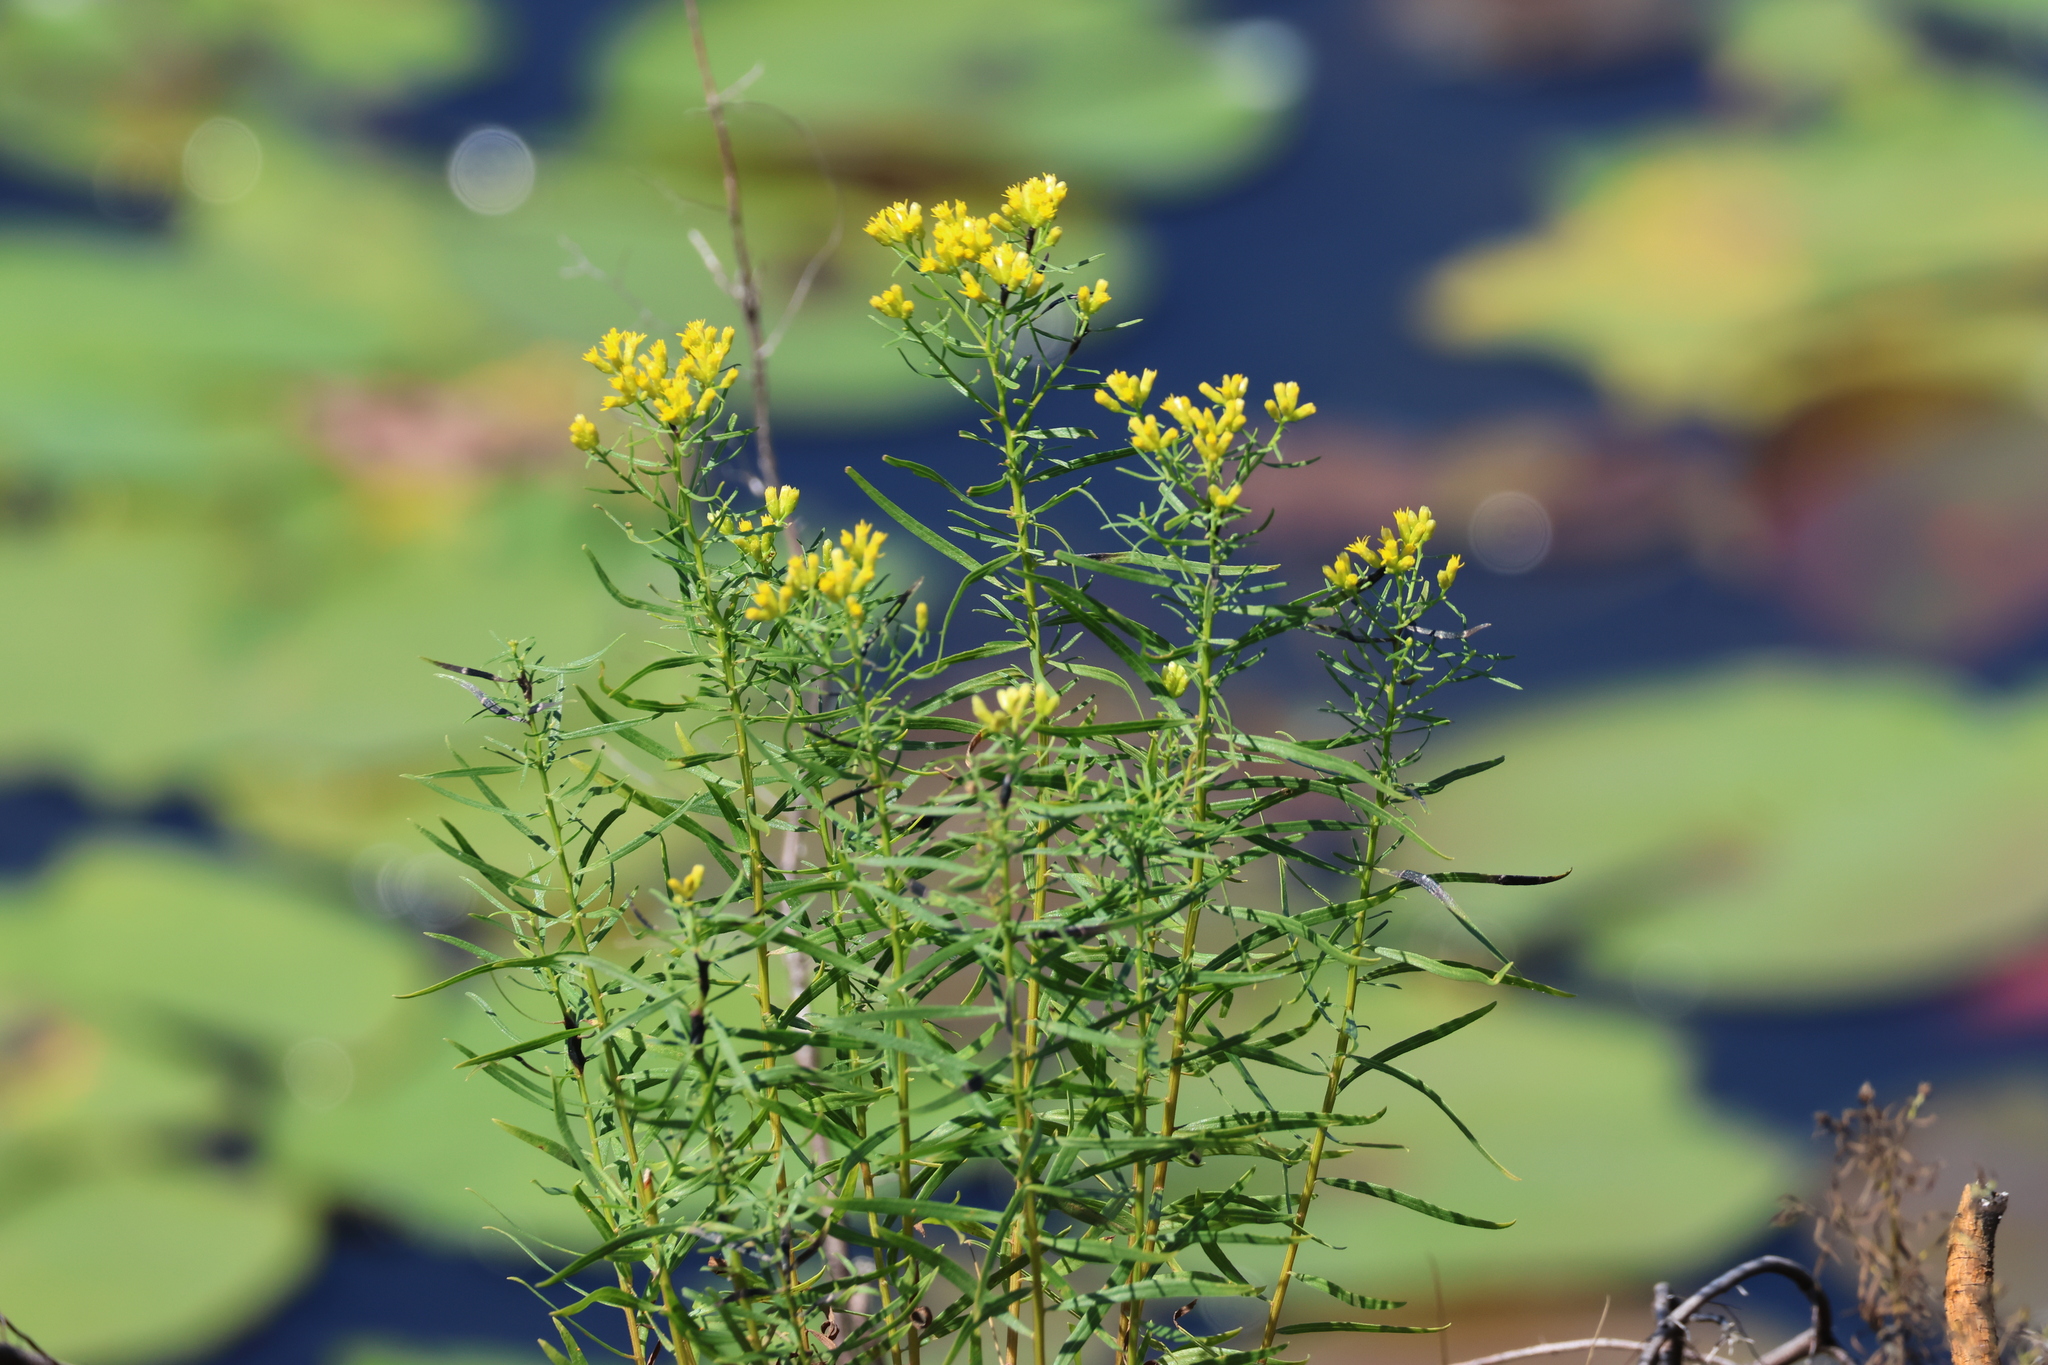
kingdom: Plantae
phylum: Tracheophyta
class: Magnoliopsida
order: Asterales
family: Asteraceae
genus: Euthamia
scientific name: Euthamia caroliniana
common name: Coastal plain goldentop
